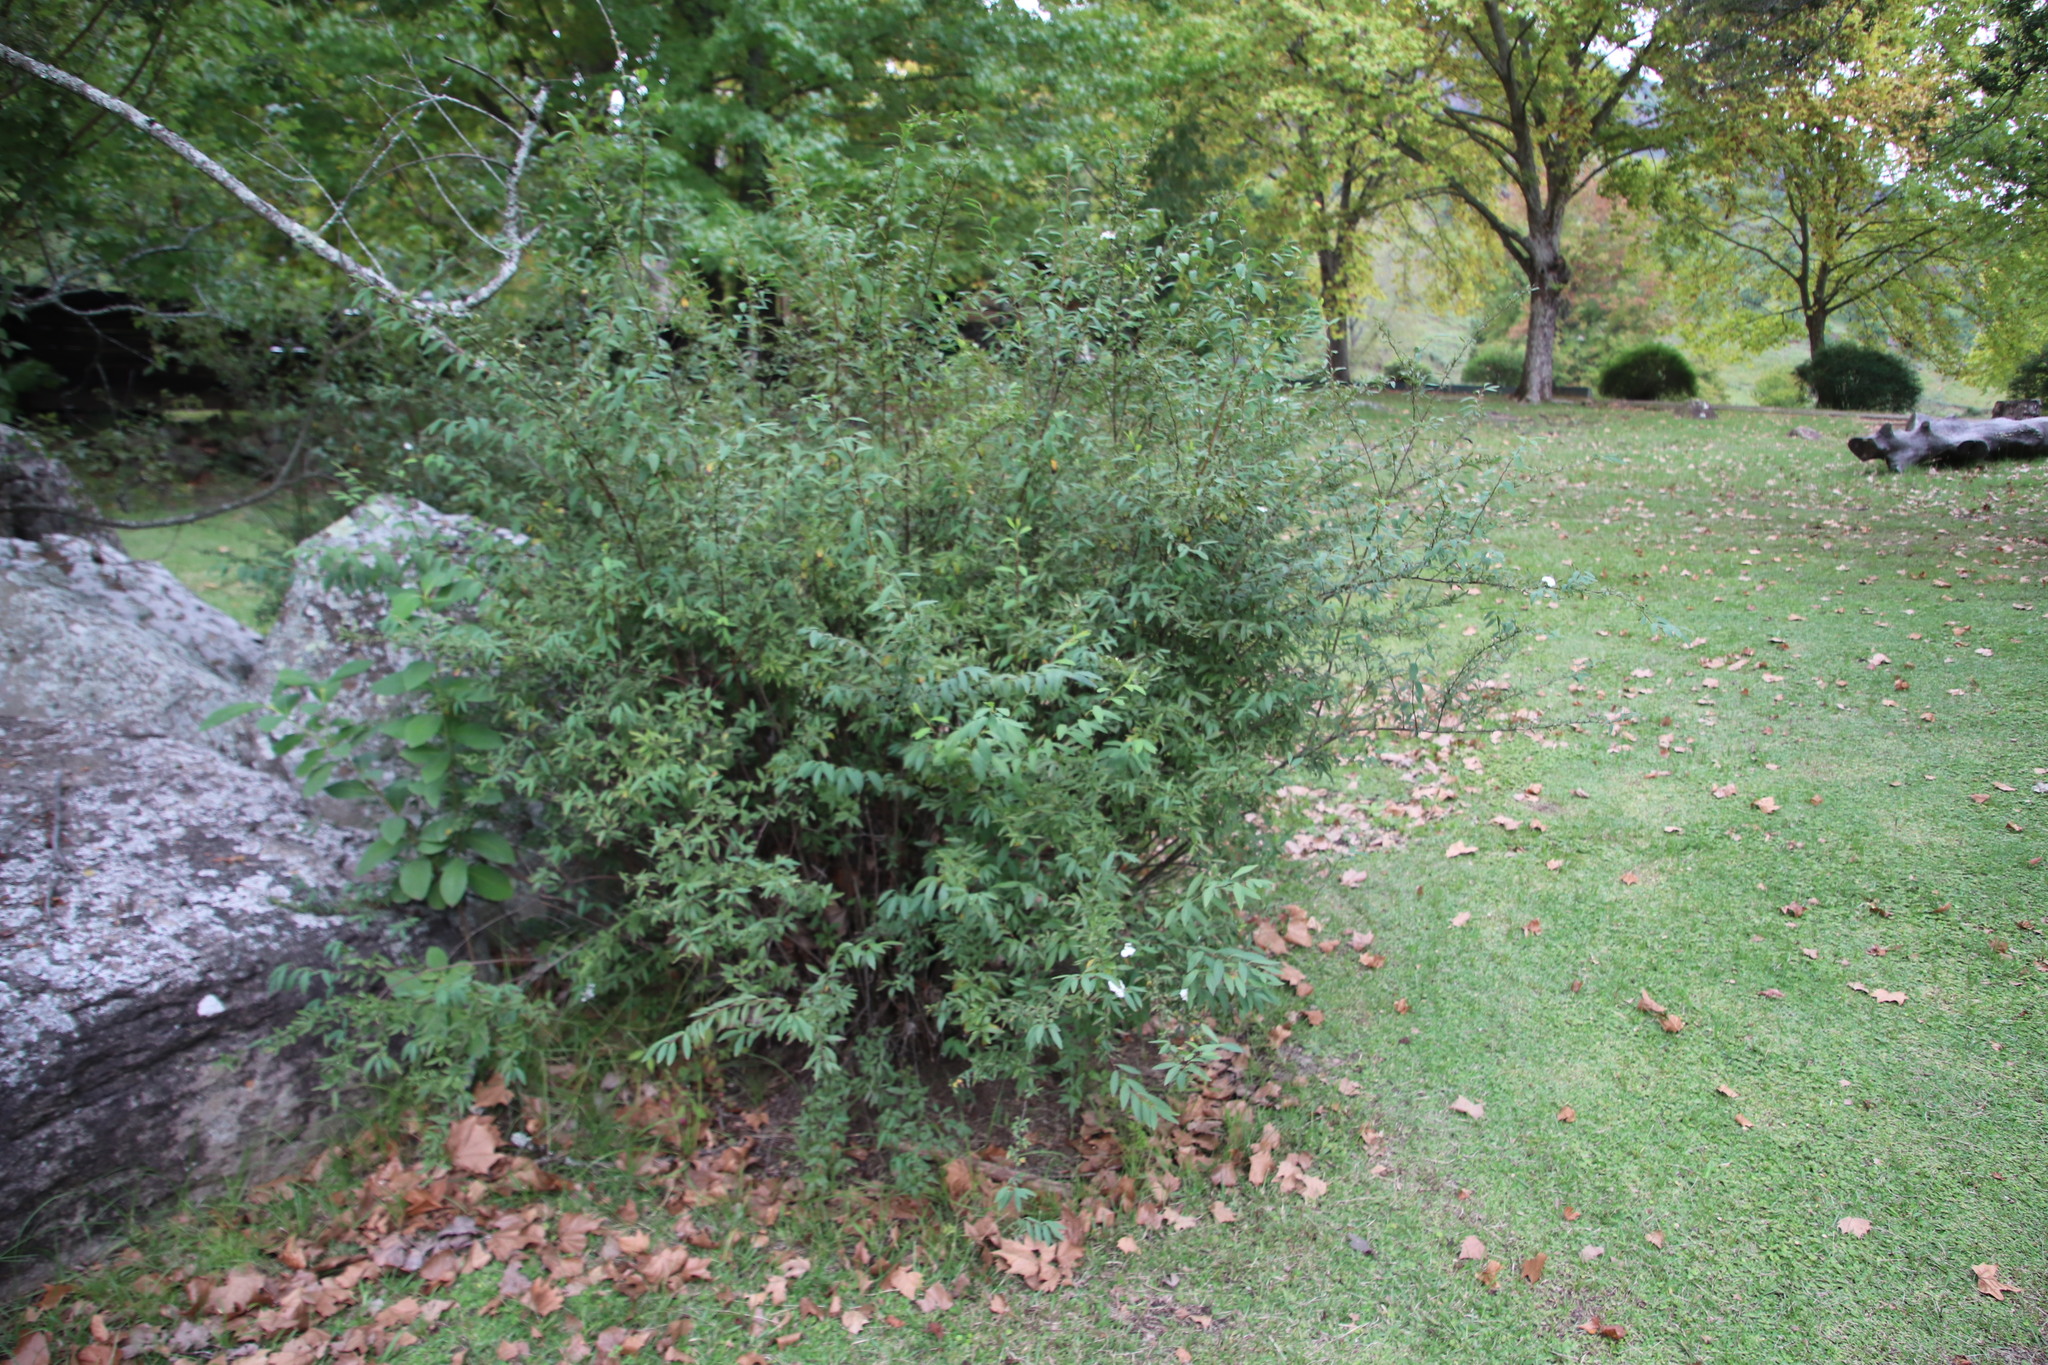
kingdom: Plantae
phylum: Tracheophyta
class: Magnoliopsida
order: Rosales
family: Rosaceae
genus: Spiraea
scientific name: Spiraea cantoniensis
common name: Reeves' meadowsweet
